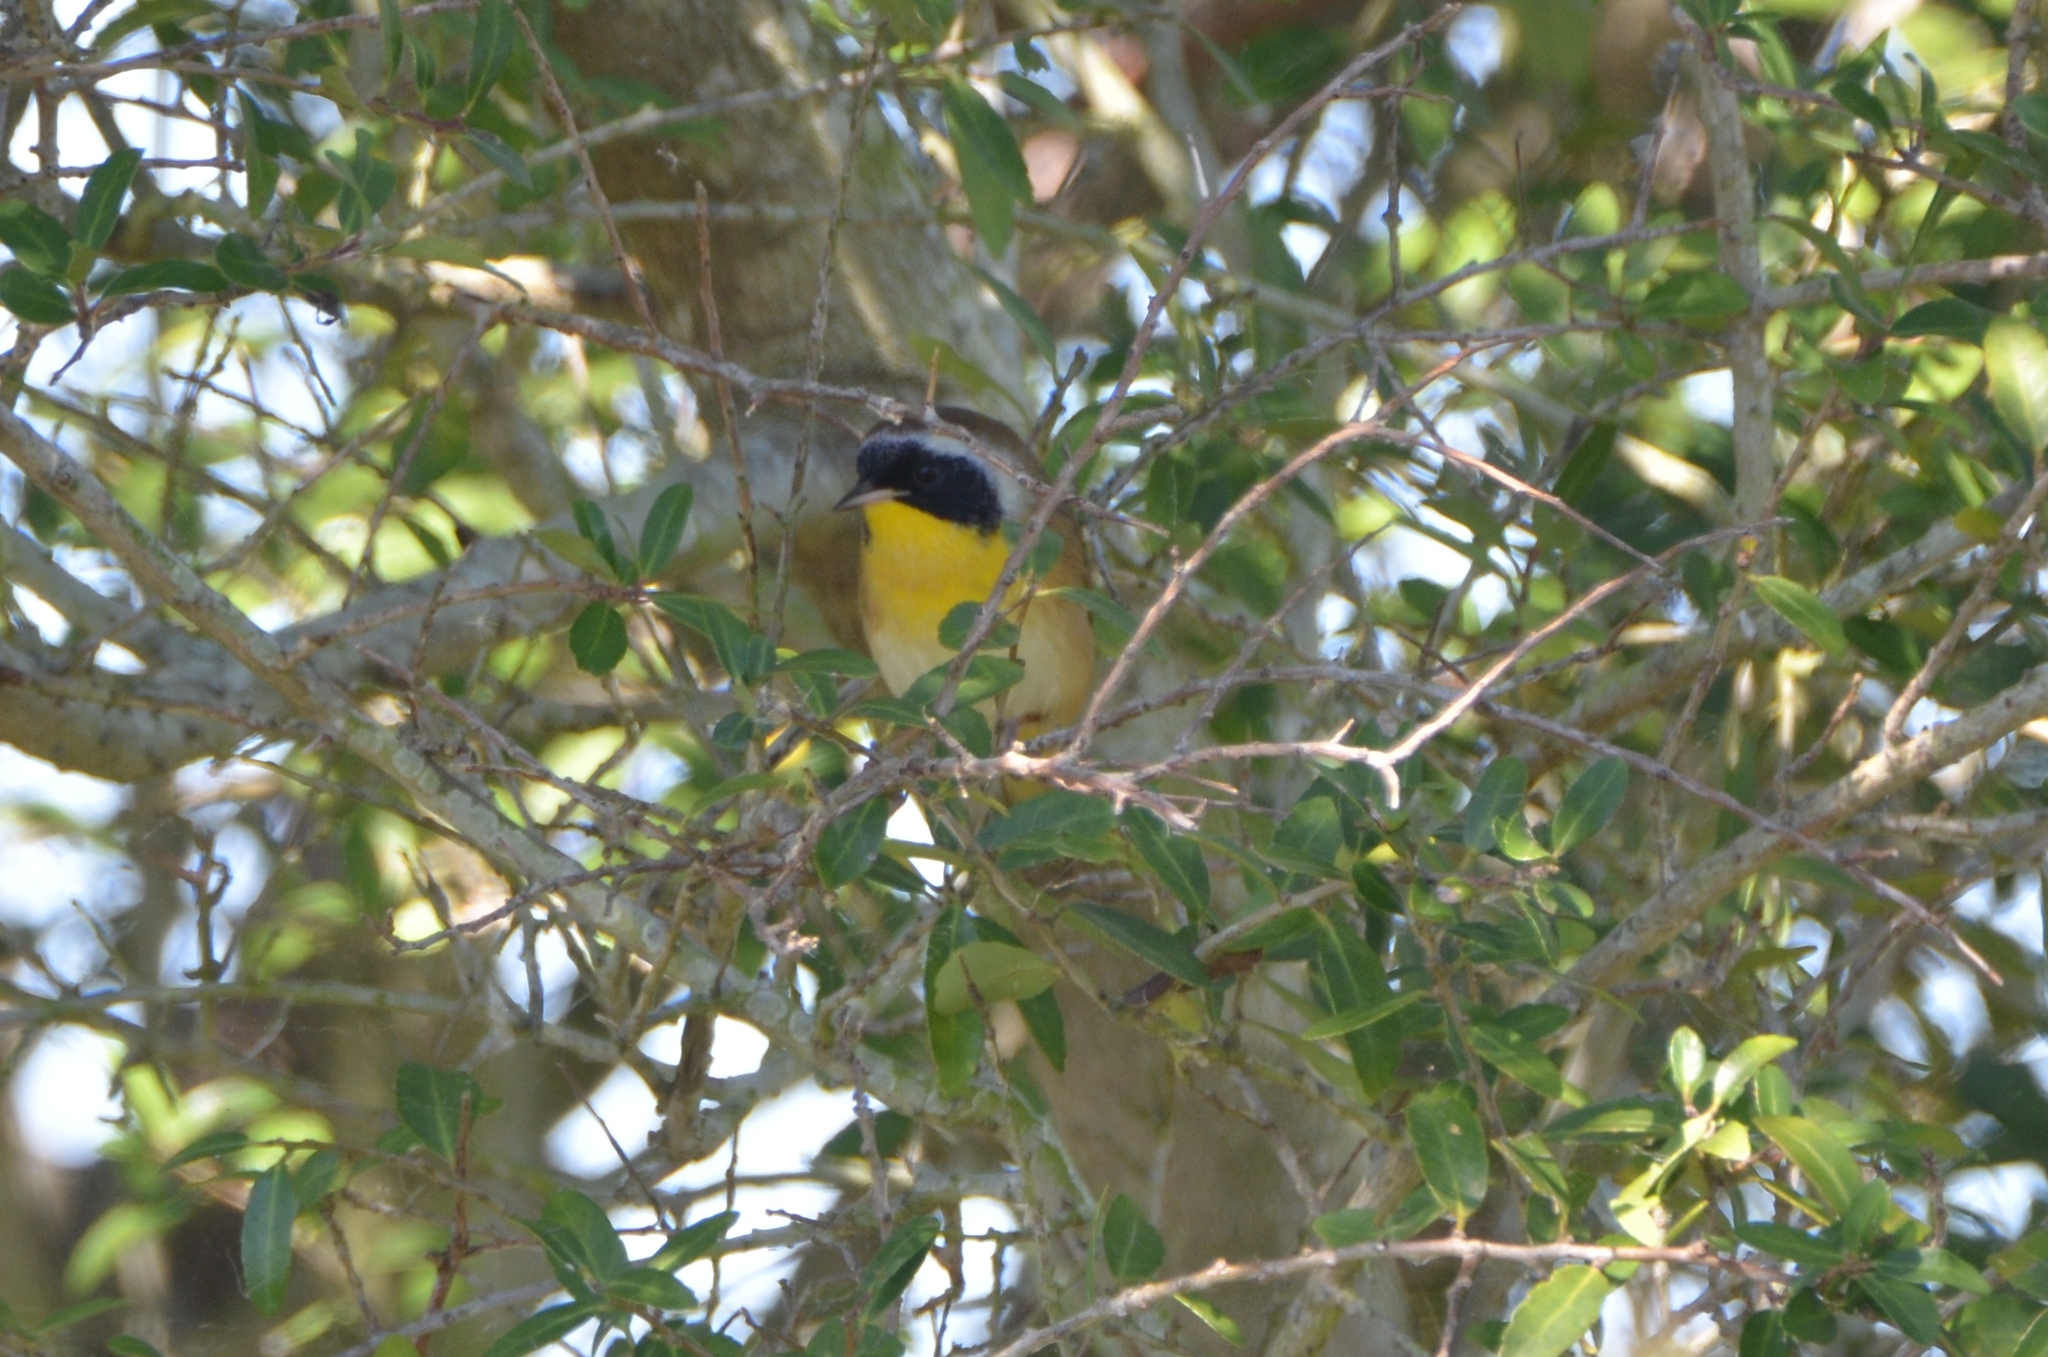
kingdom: Animalia
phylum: Chordata
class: Aves
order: Passeriformes
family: Parulidae
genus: Geothlypis
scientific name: Geothlypis trichas
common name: Common yellowthroat
